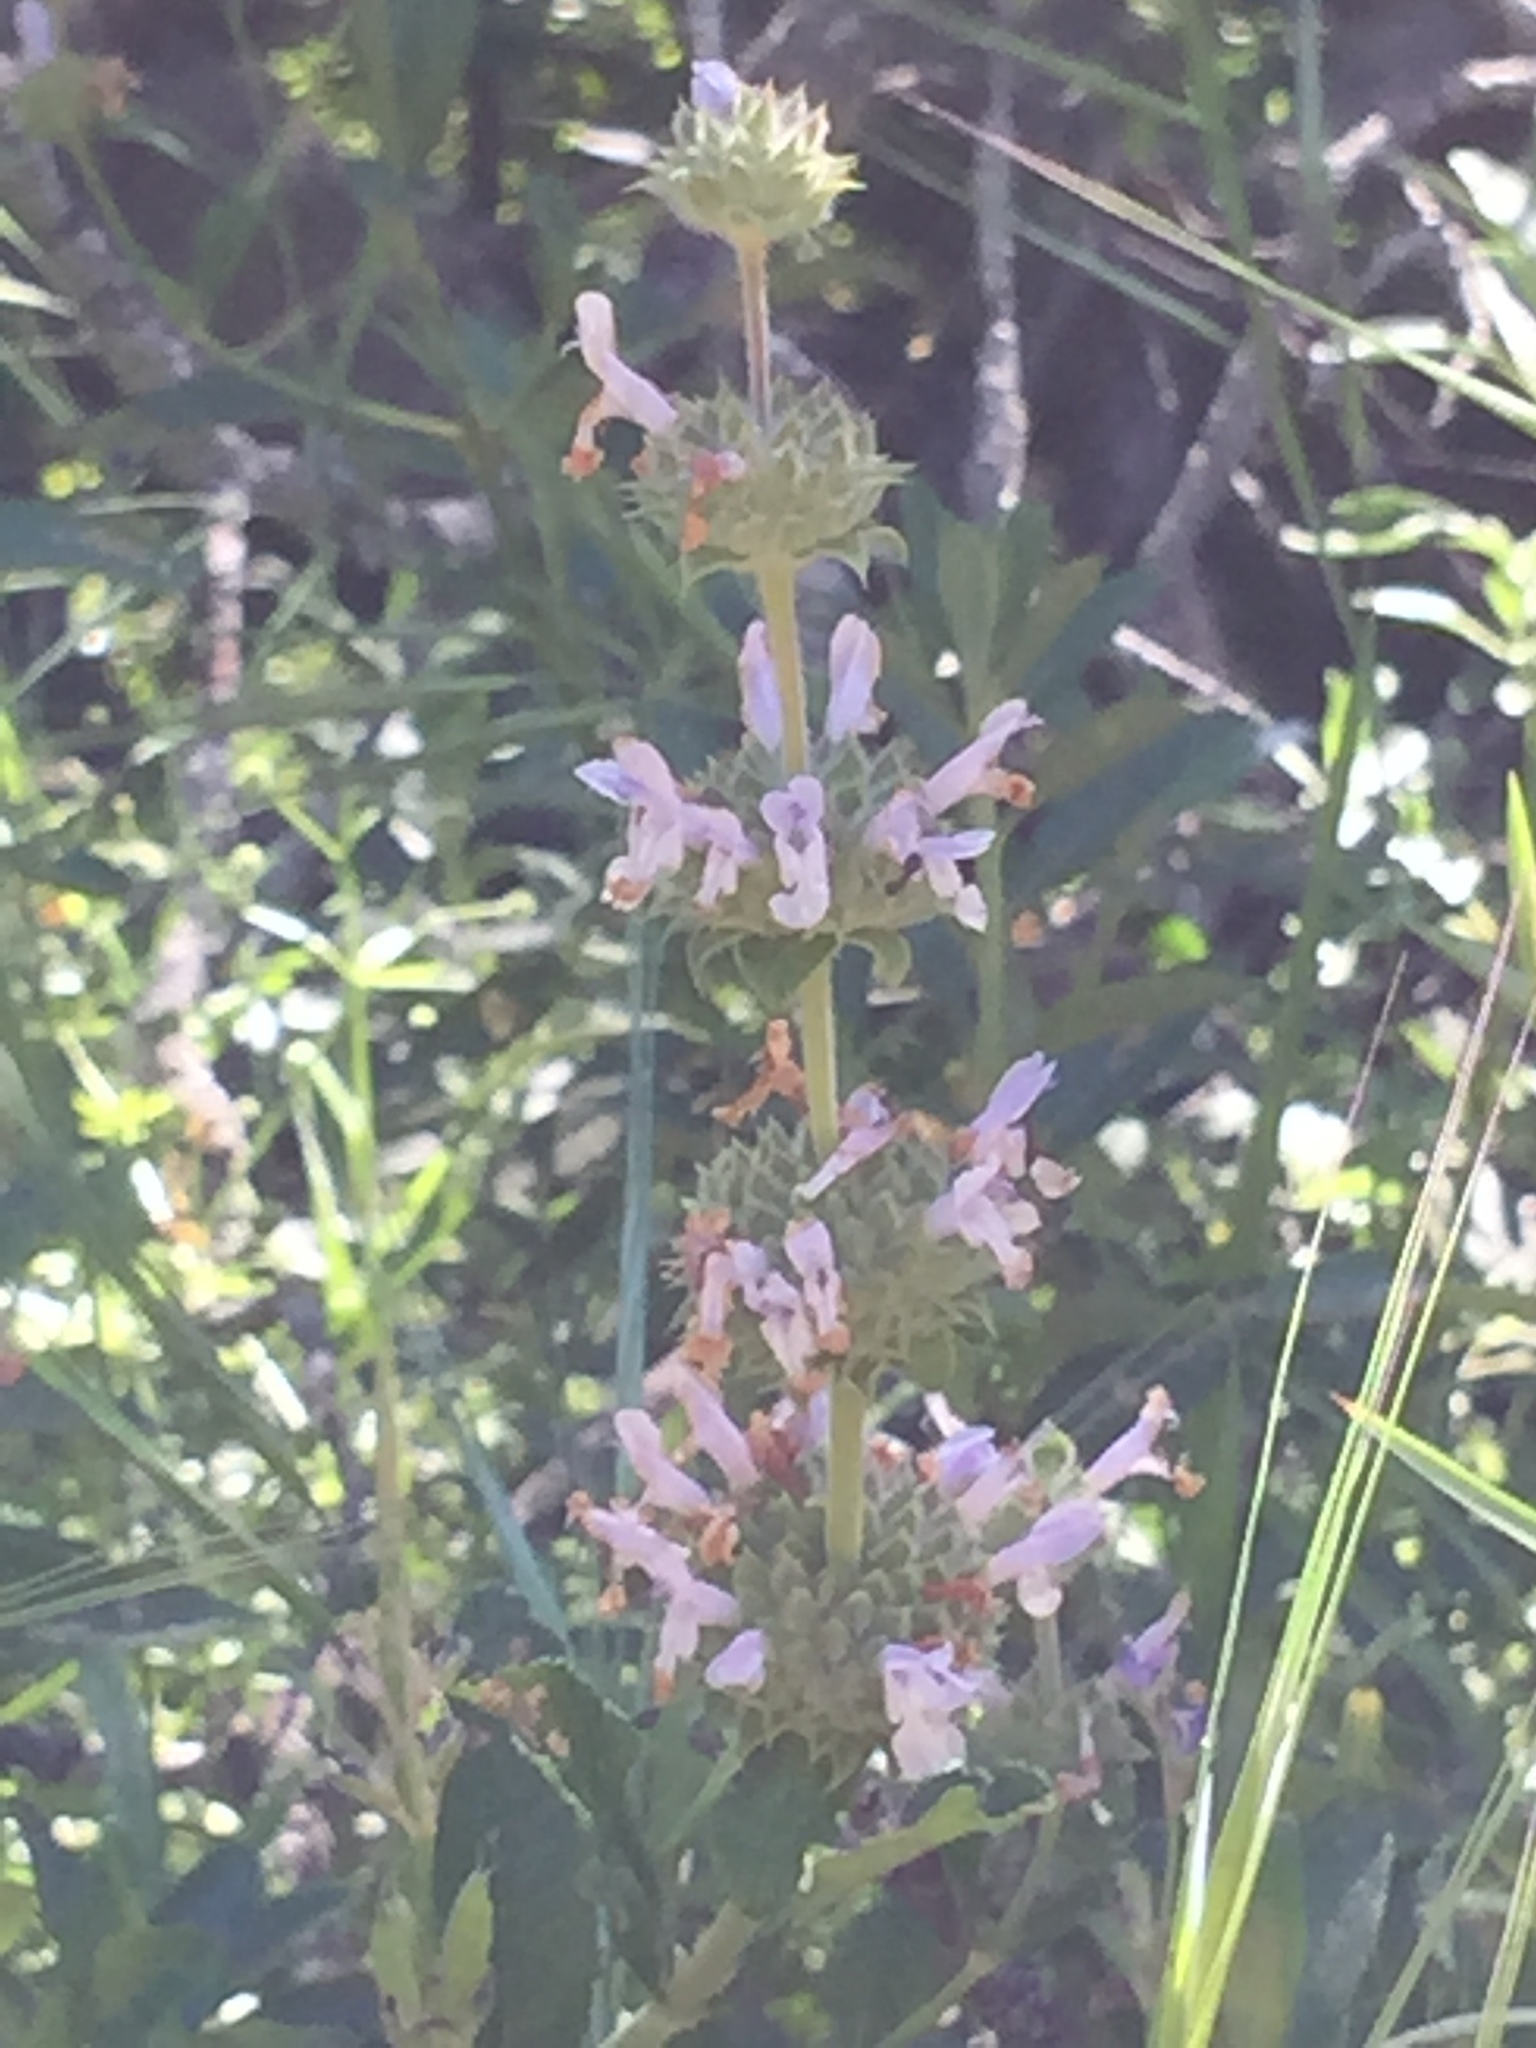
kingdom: Plantae
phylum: Tracheophyta
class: Magnoliopsida
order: Lamiales
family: Lamiaceae
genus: Salvia
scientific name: Salvia mellifera
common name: Black sage
